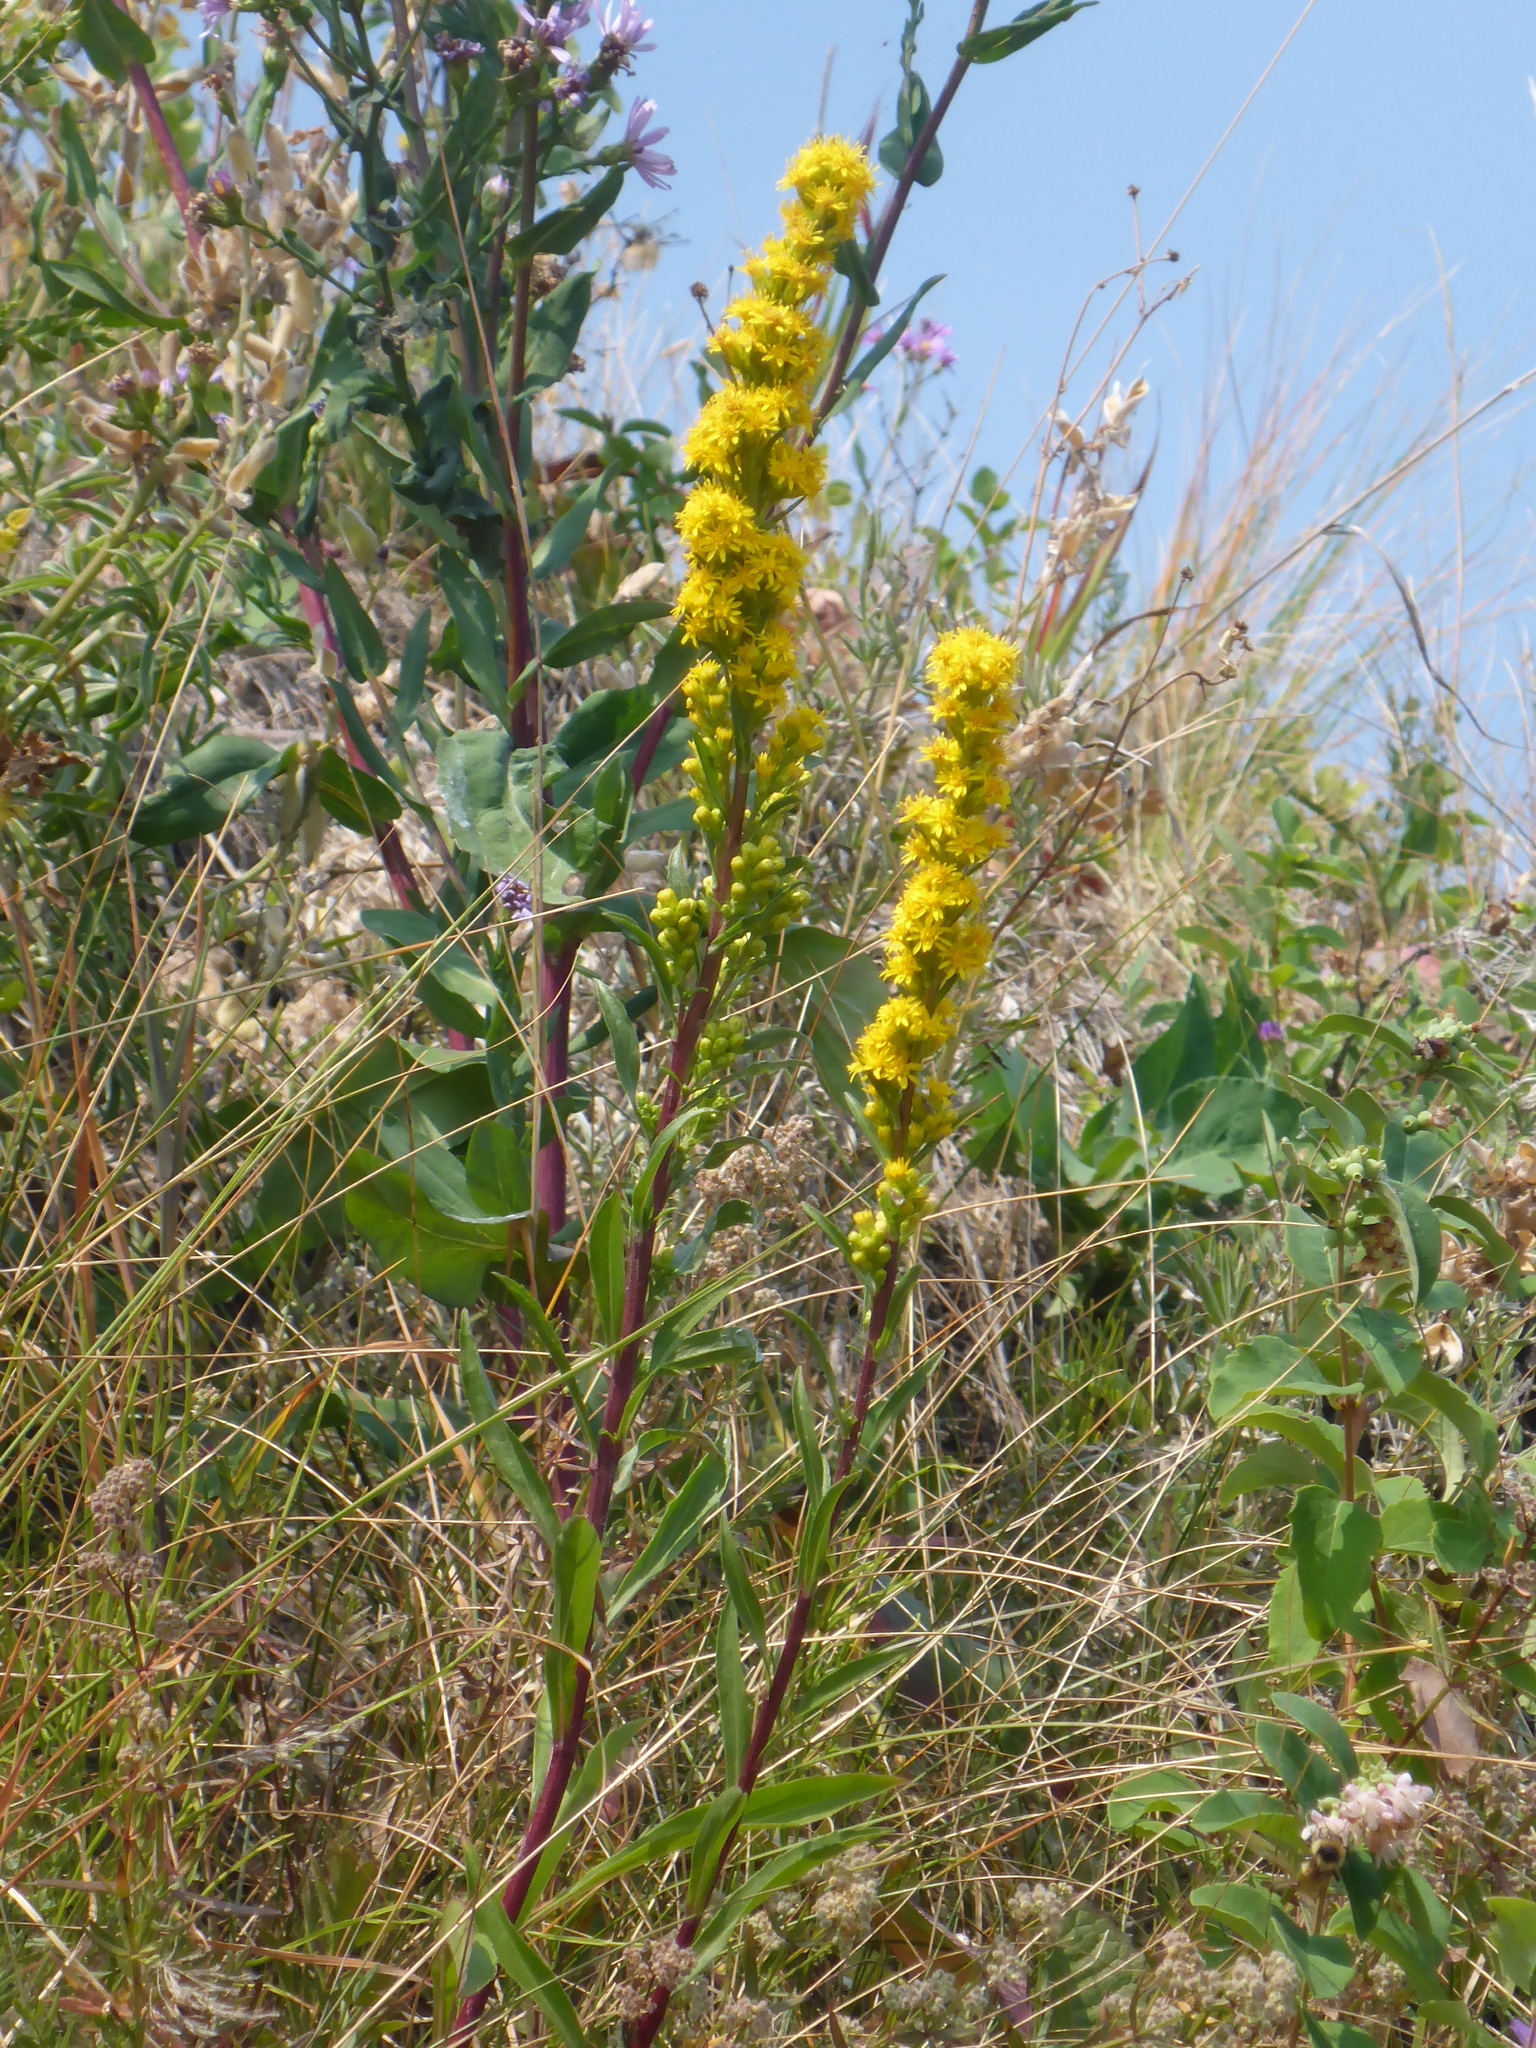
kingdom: Plantae
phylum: Tracheophyta
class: Magnoliopsida
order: Asterales
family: Asteraceae
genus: Solidago
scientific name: Solidago spathulata
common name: Coast goldenrod
